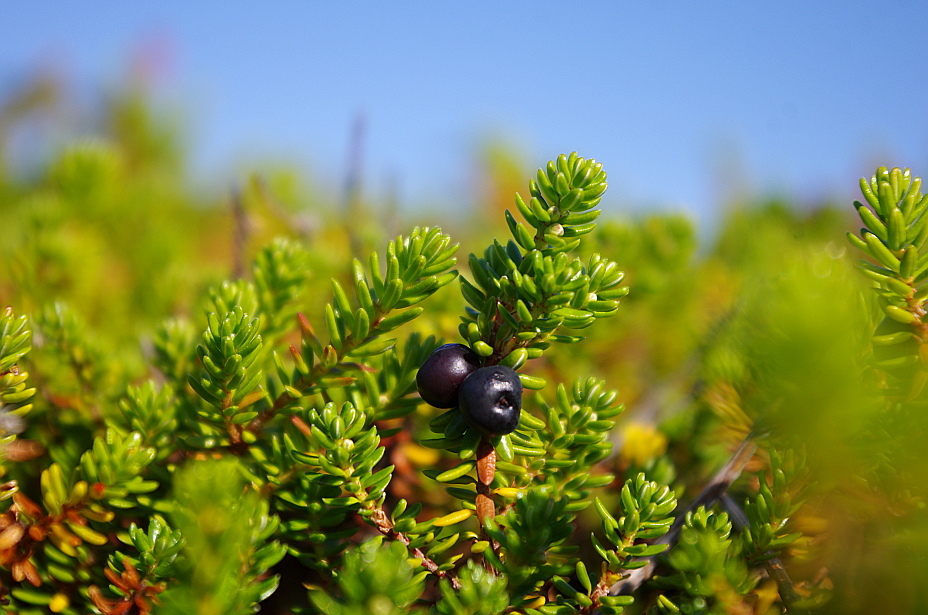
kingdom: Plantae
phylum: Tracheophyta
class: Magnoliopsida
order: Ericales
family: Ericaceae
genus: Empetrum
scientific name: Empetrum nigrum
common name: Black crowberry
